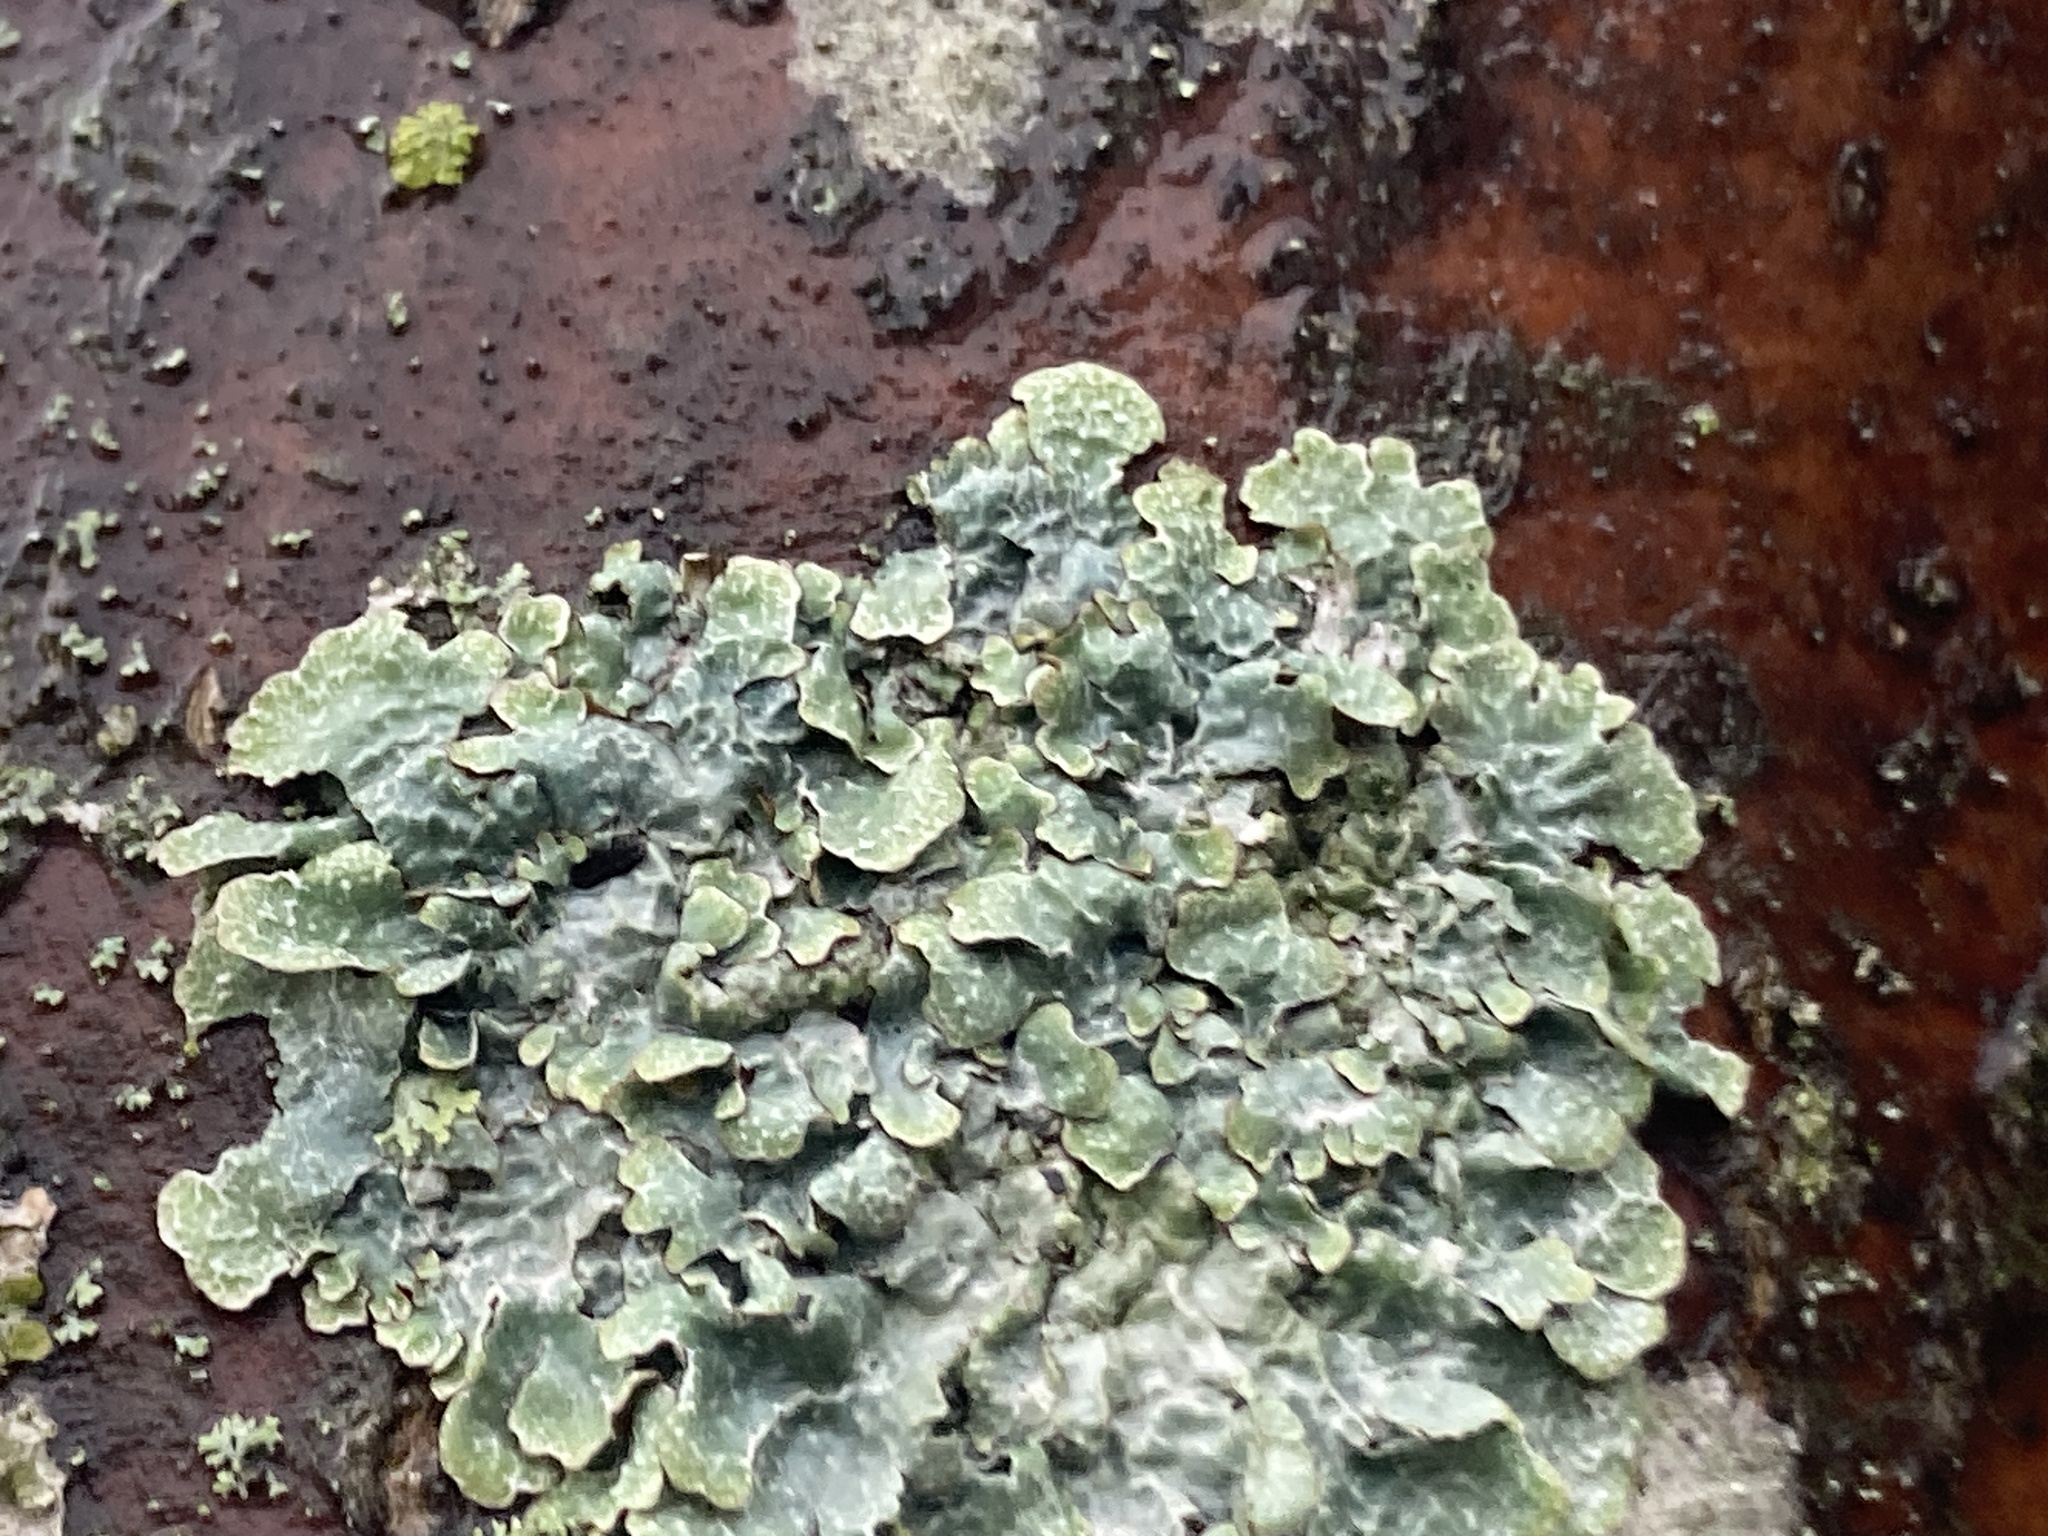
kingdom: Fungi
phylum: Ascomycota
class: Lecanoromycetes
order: Lecanorales
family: Parmeliaceae
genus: Parmelia
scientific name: Parmelia sulcata
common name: Netted shield lichen
